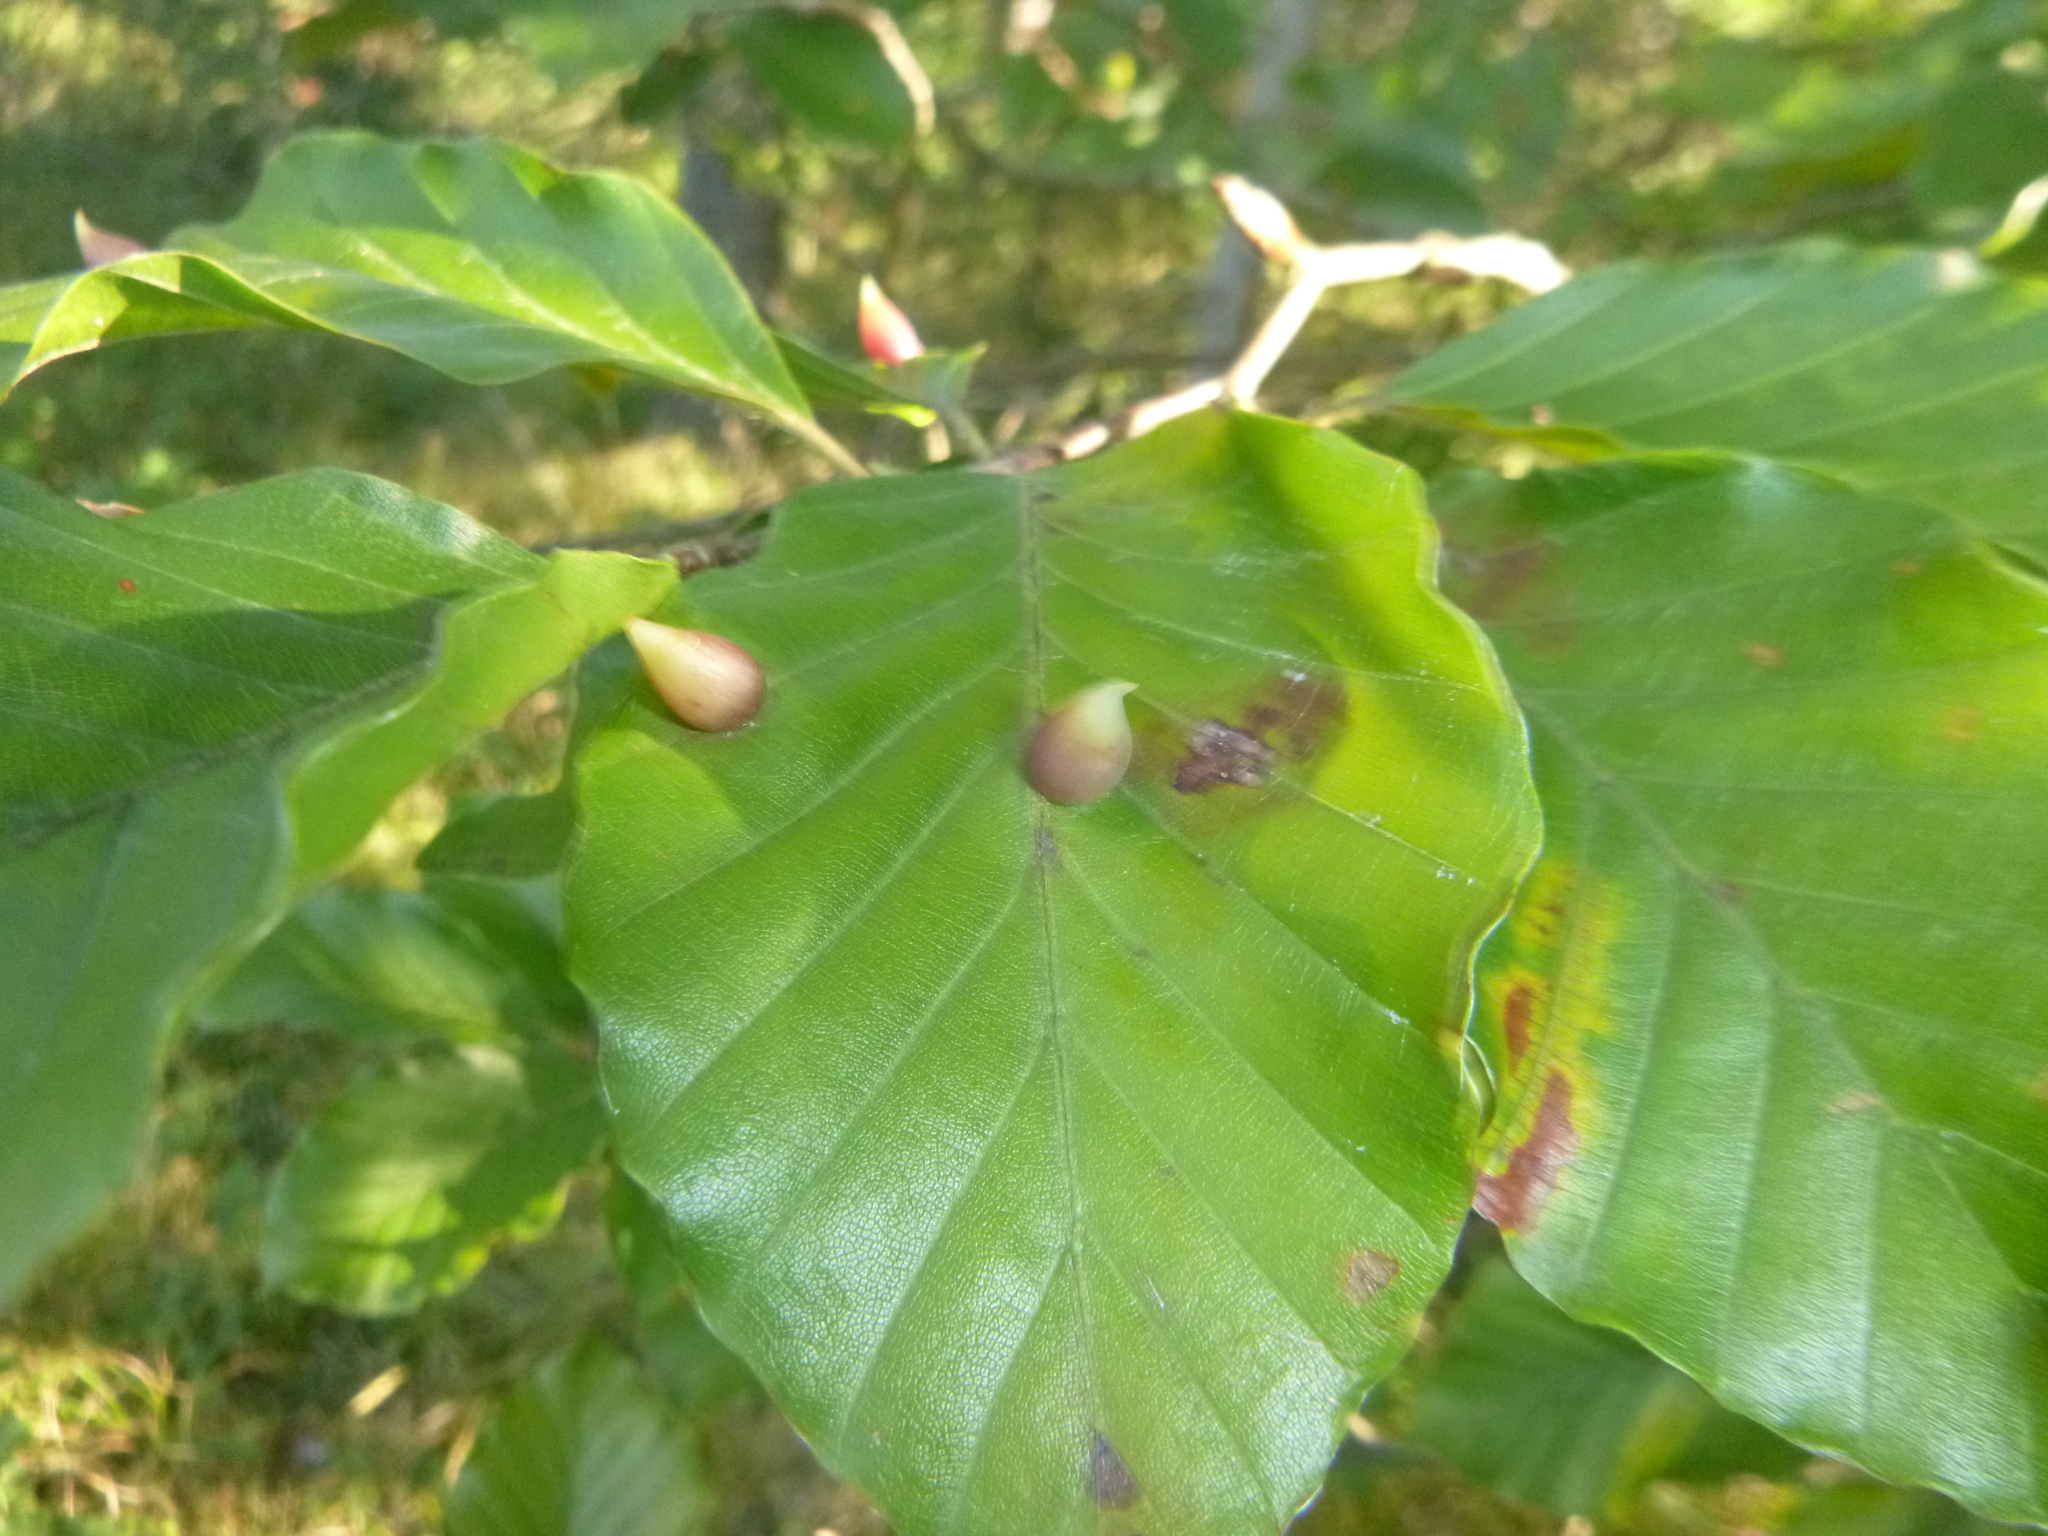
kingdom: Plantae
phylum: Tracheophyta
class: Magnoliopsida
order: Fagales
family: Fagaceae
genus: Fagus
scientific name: Fagus sylvatica
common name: Beech
